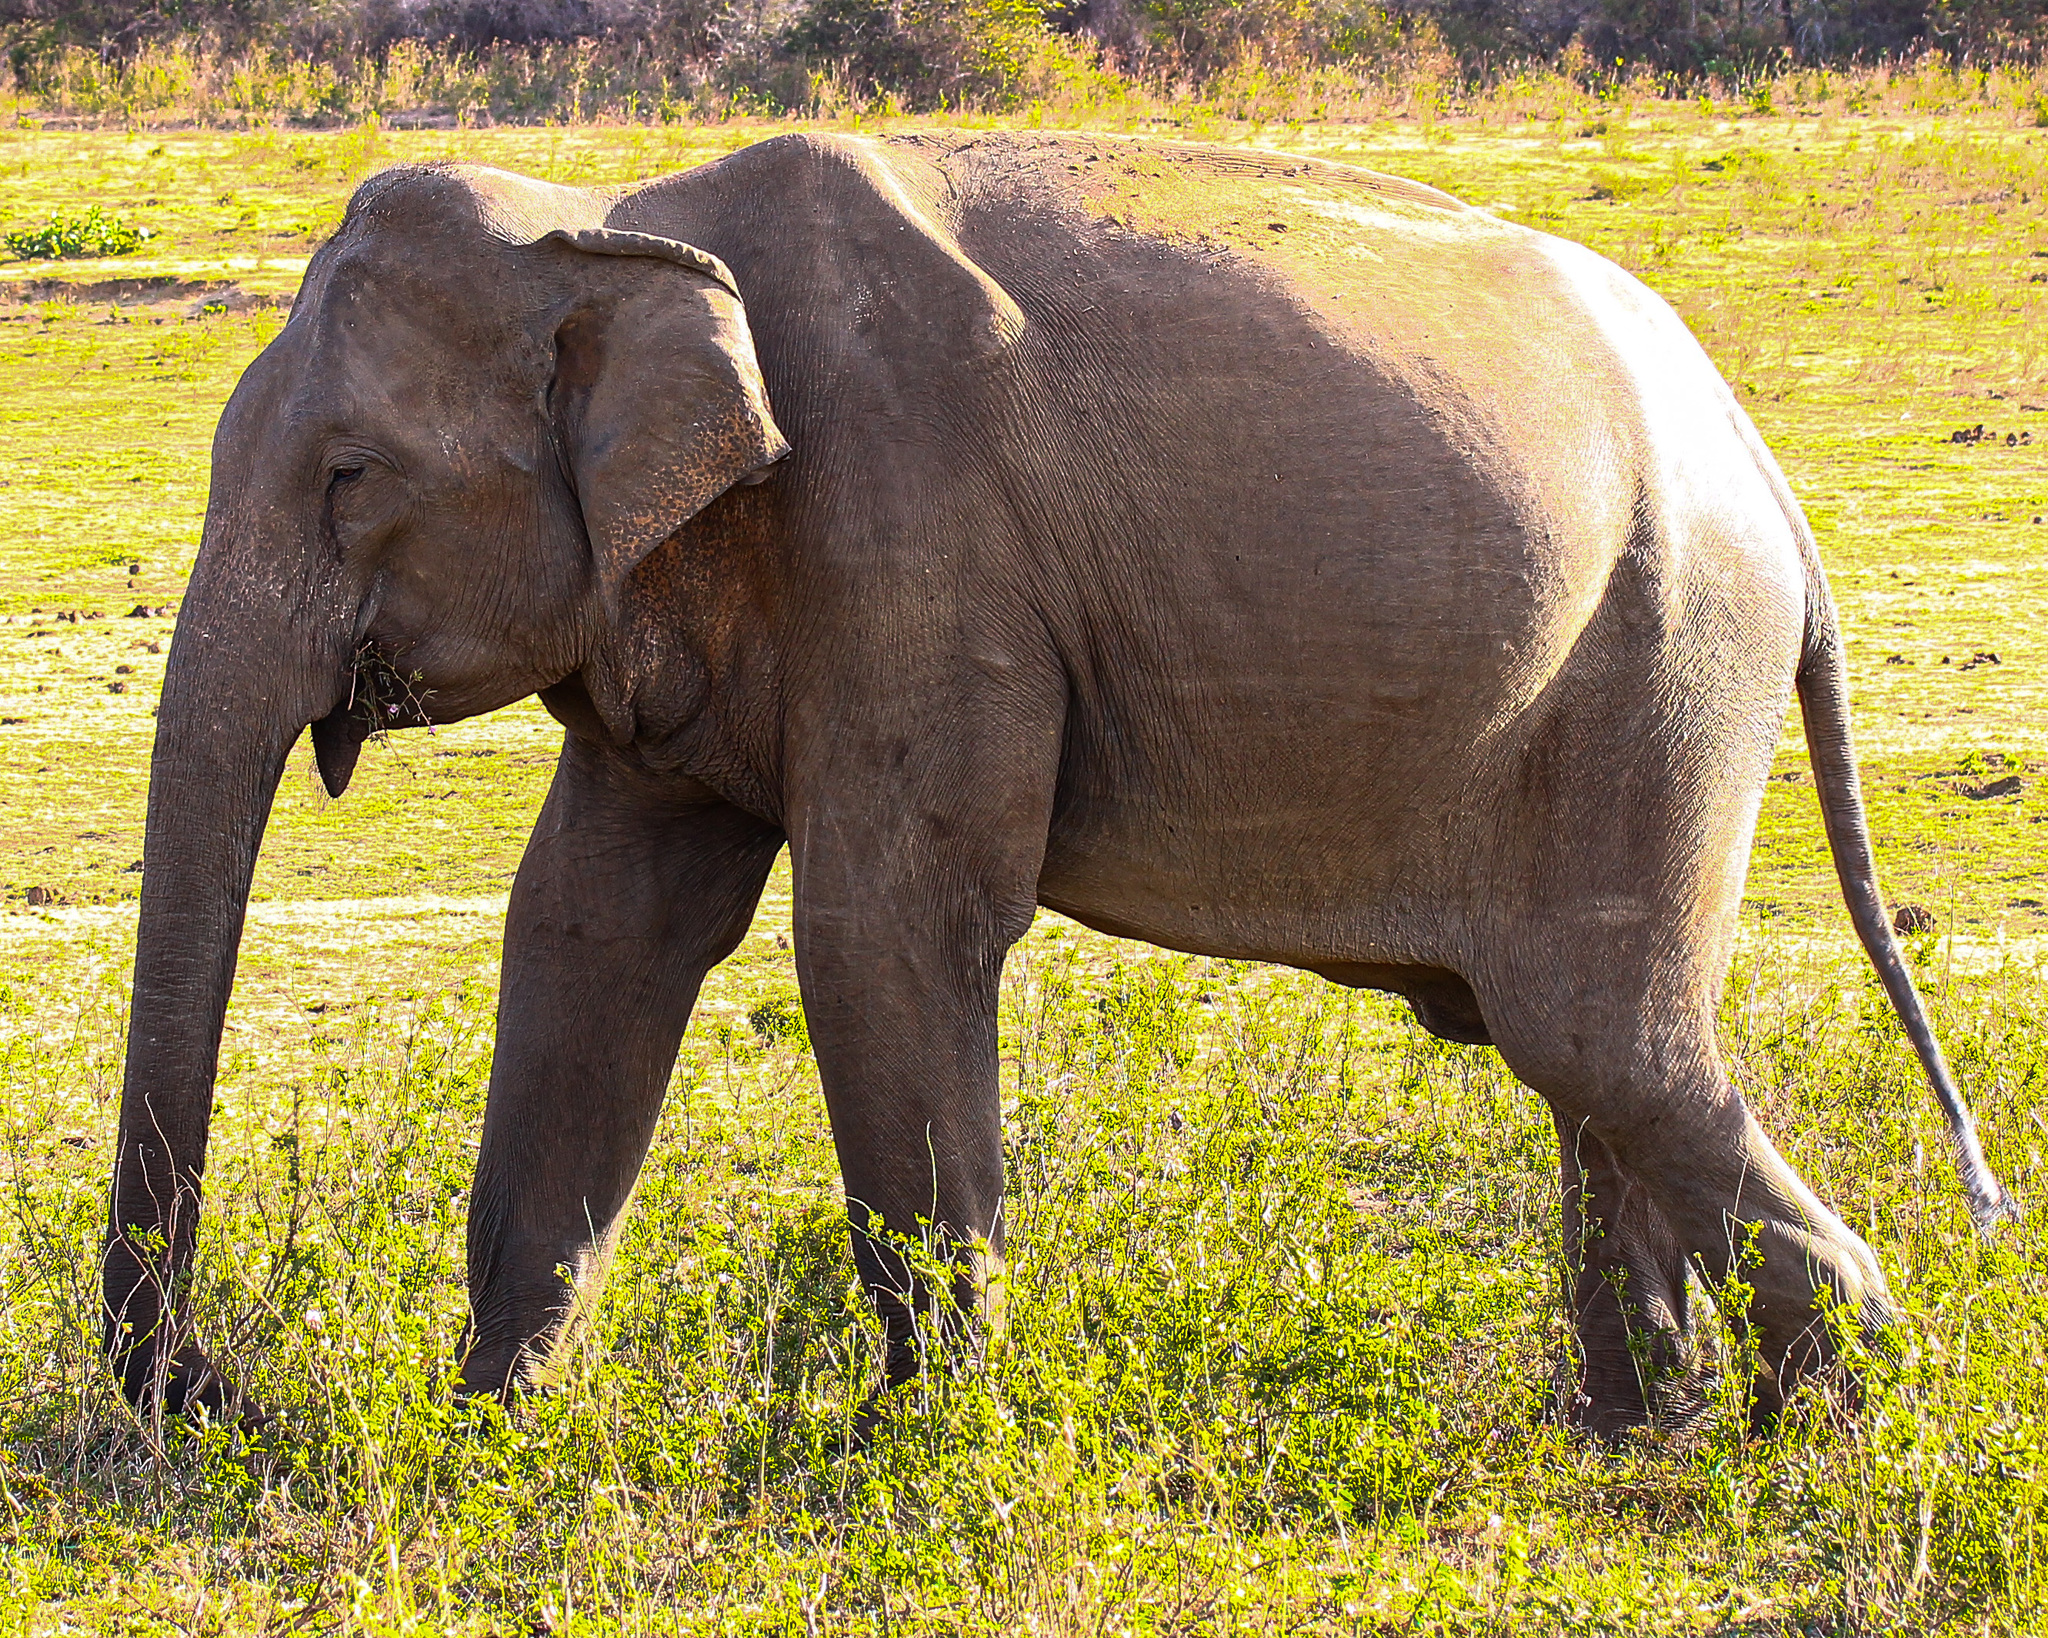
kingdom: Animalia
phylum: Chordata
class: Mammalia
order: Proboscidea
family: Elephantidae
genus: Elephas
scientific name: Elephas maximus
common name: Asian elephant
